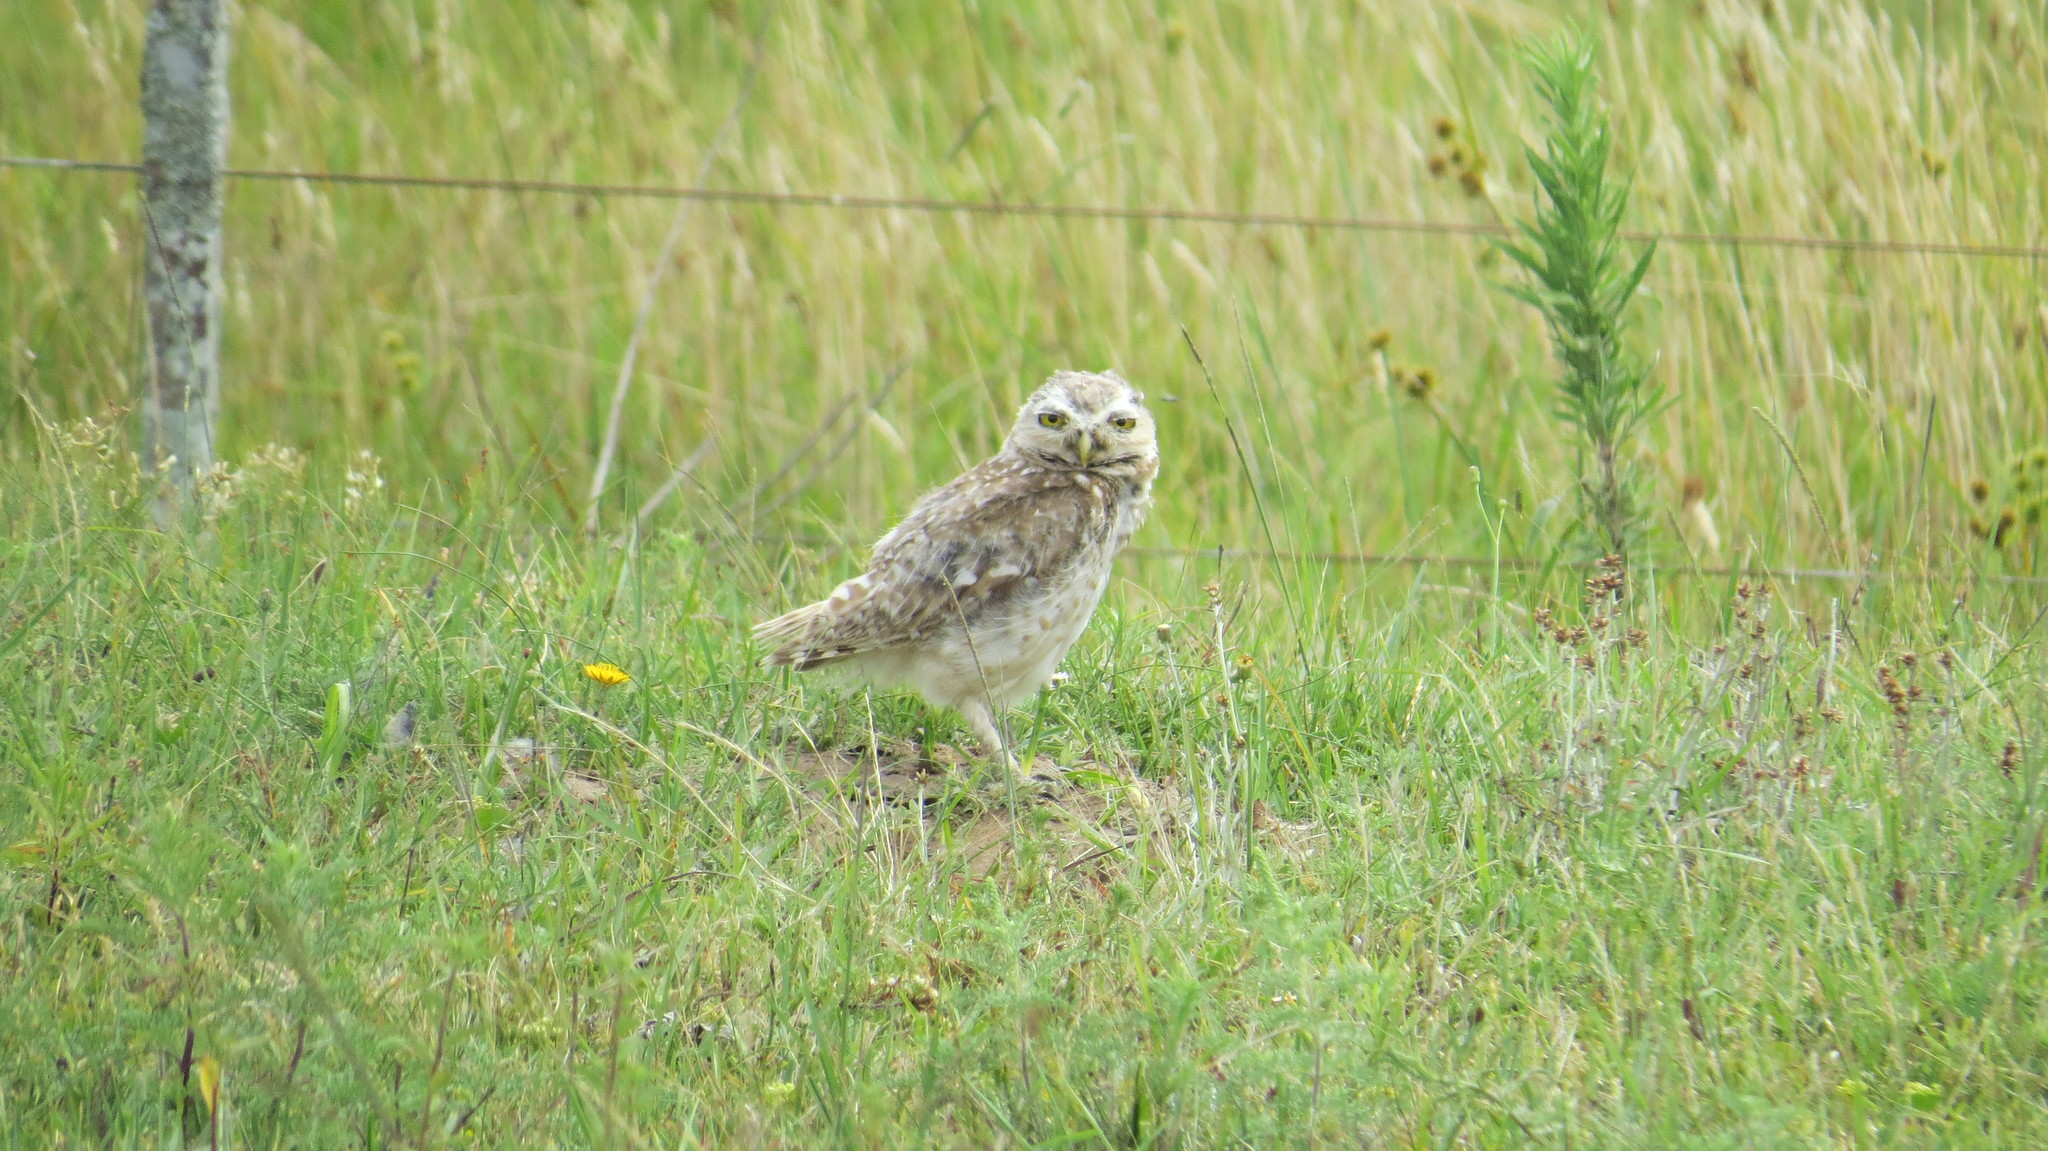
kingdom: Animalia
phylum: Chordata
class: Aves
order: Strigiformes
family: Strigidae
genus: Athene
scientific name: Athene cunicularia
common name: Burrowing owl
